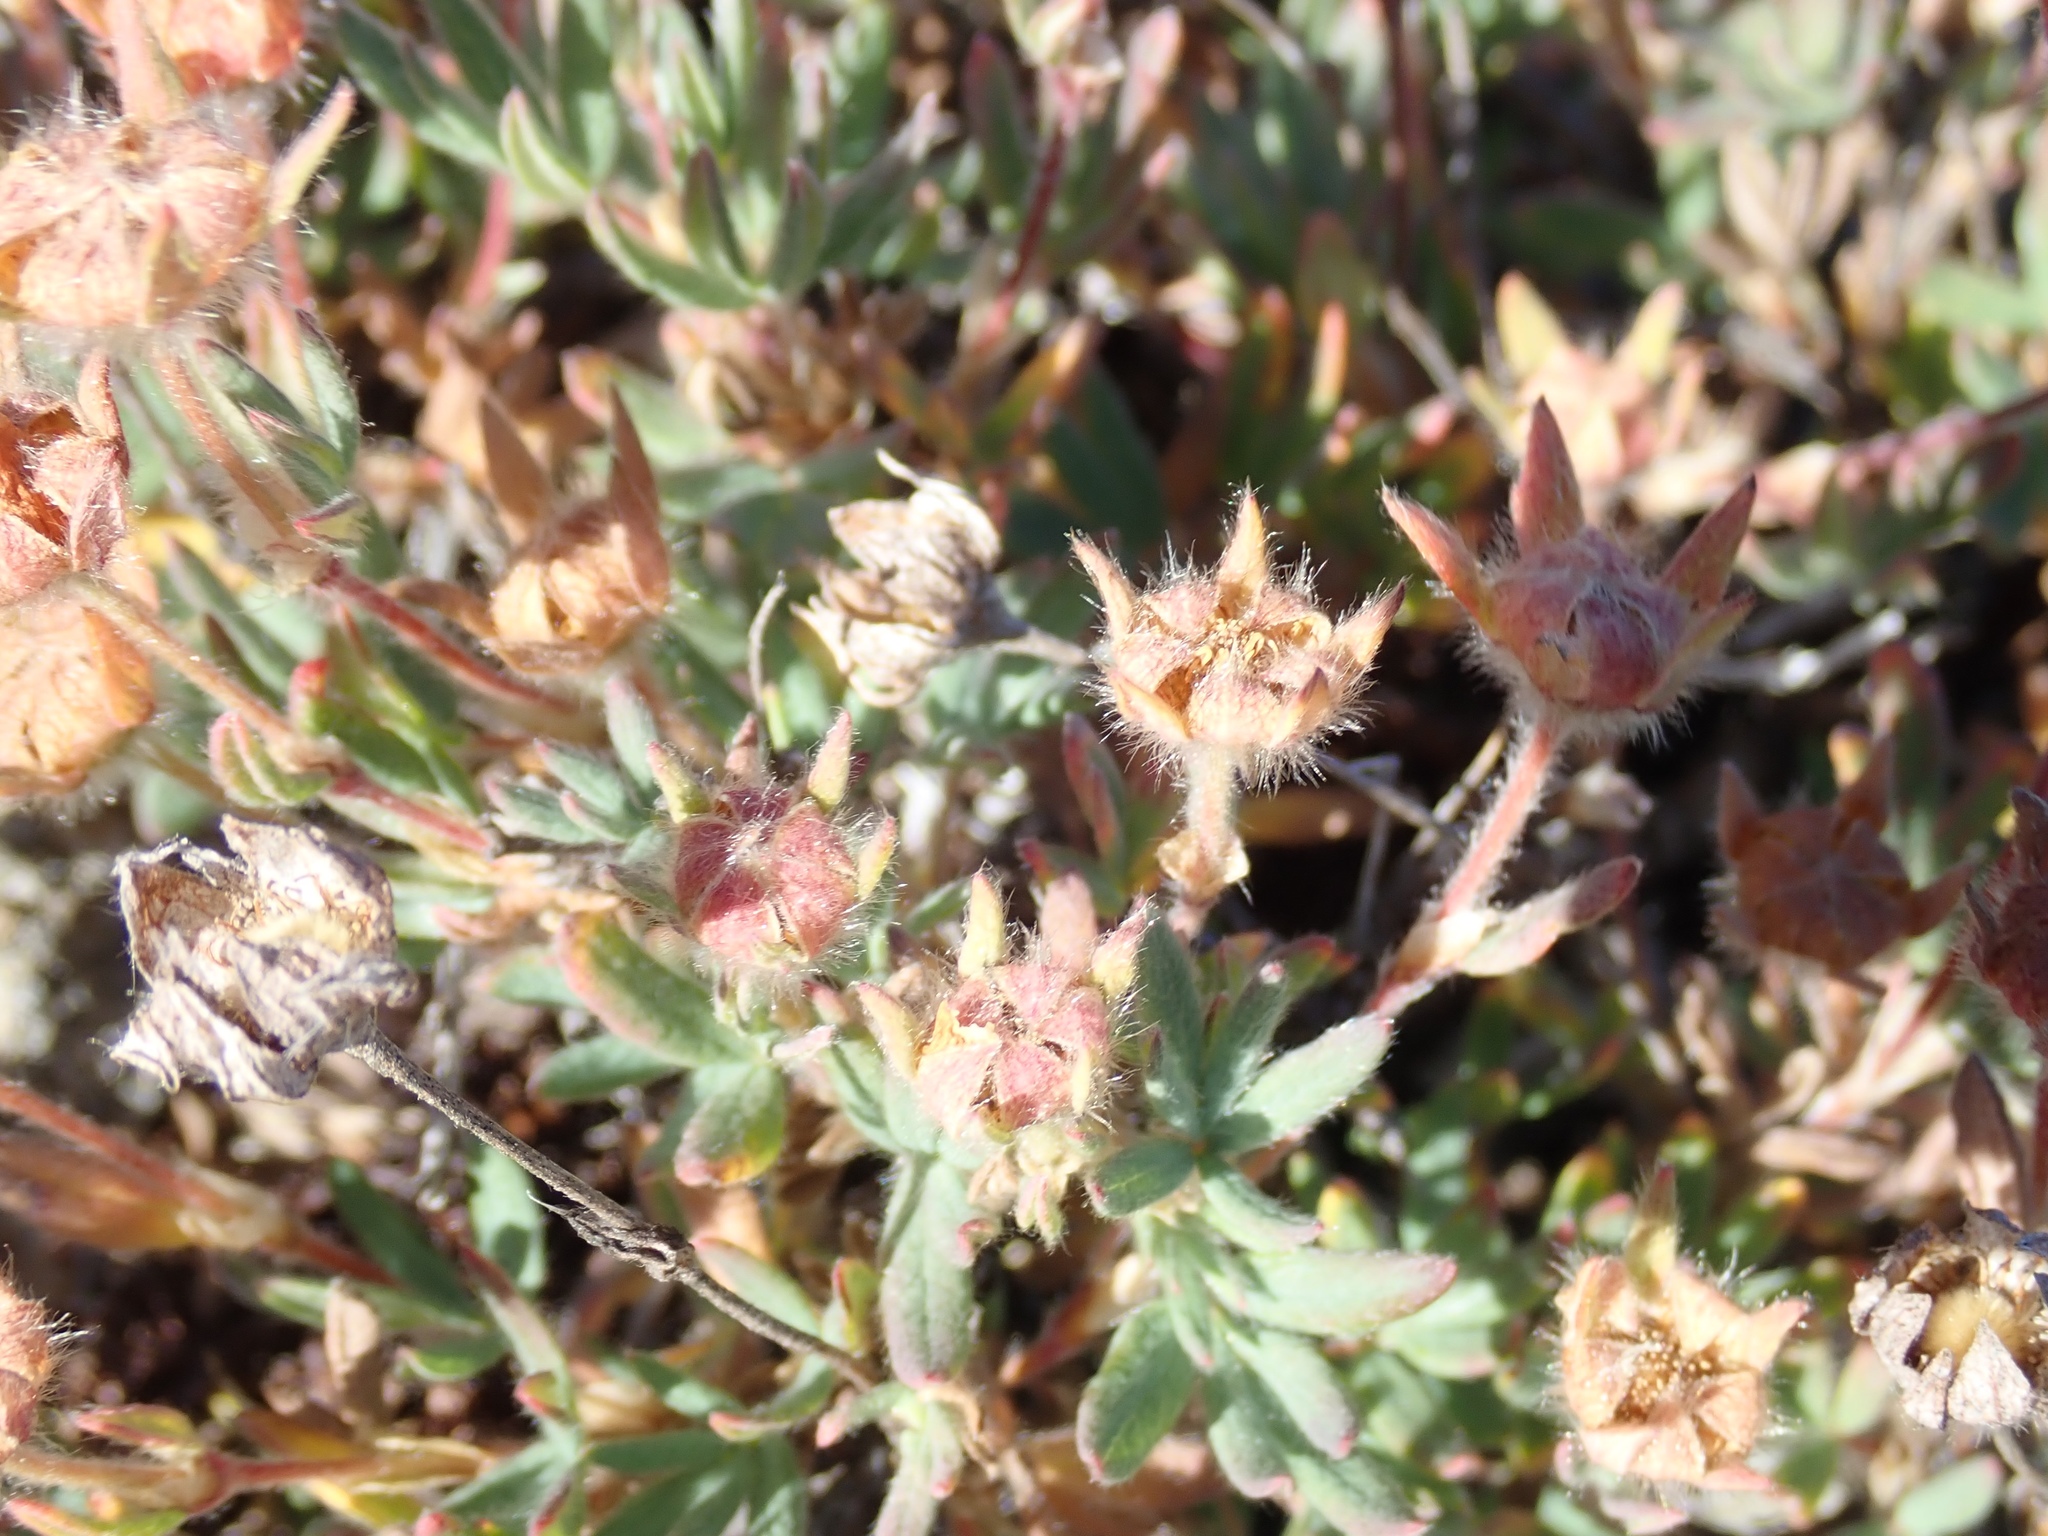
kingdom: Plantae
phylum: Tracheophyta
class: Magnoliopsida
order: Rosales
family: Rosaceae
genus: Dasiphora
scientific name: Dasiphora fruticosa
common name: Shrubby cinquefoil
